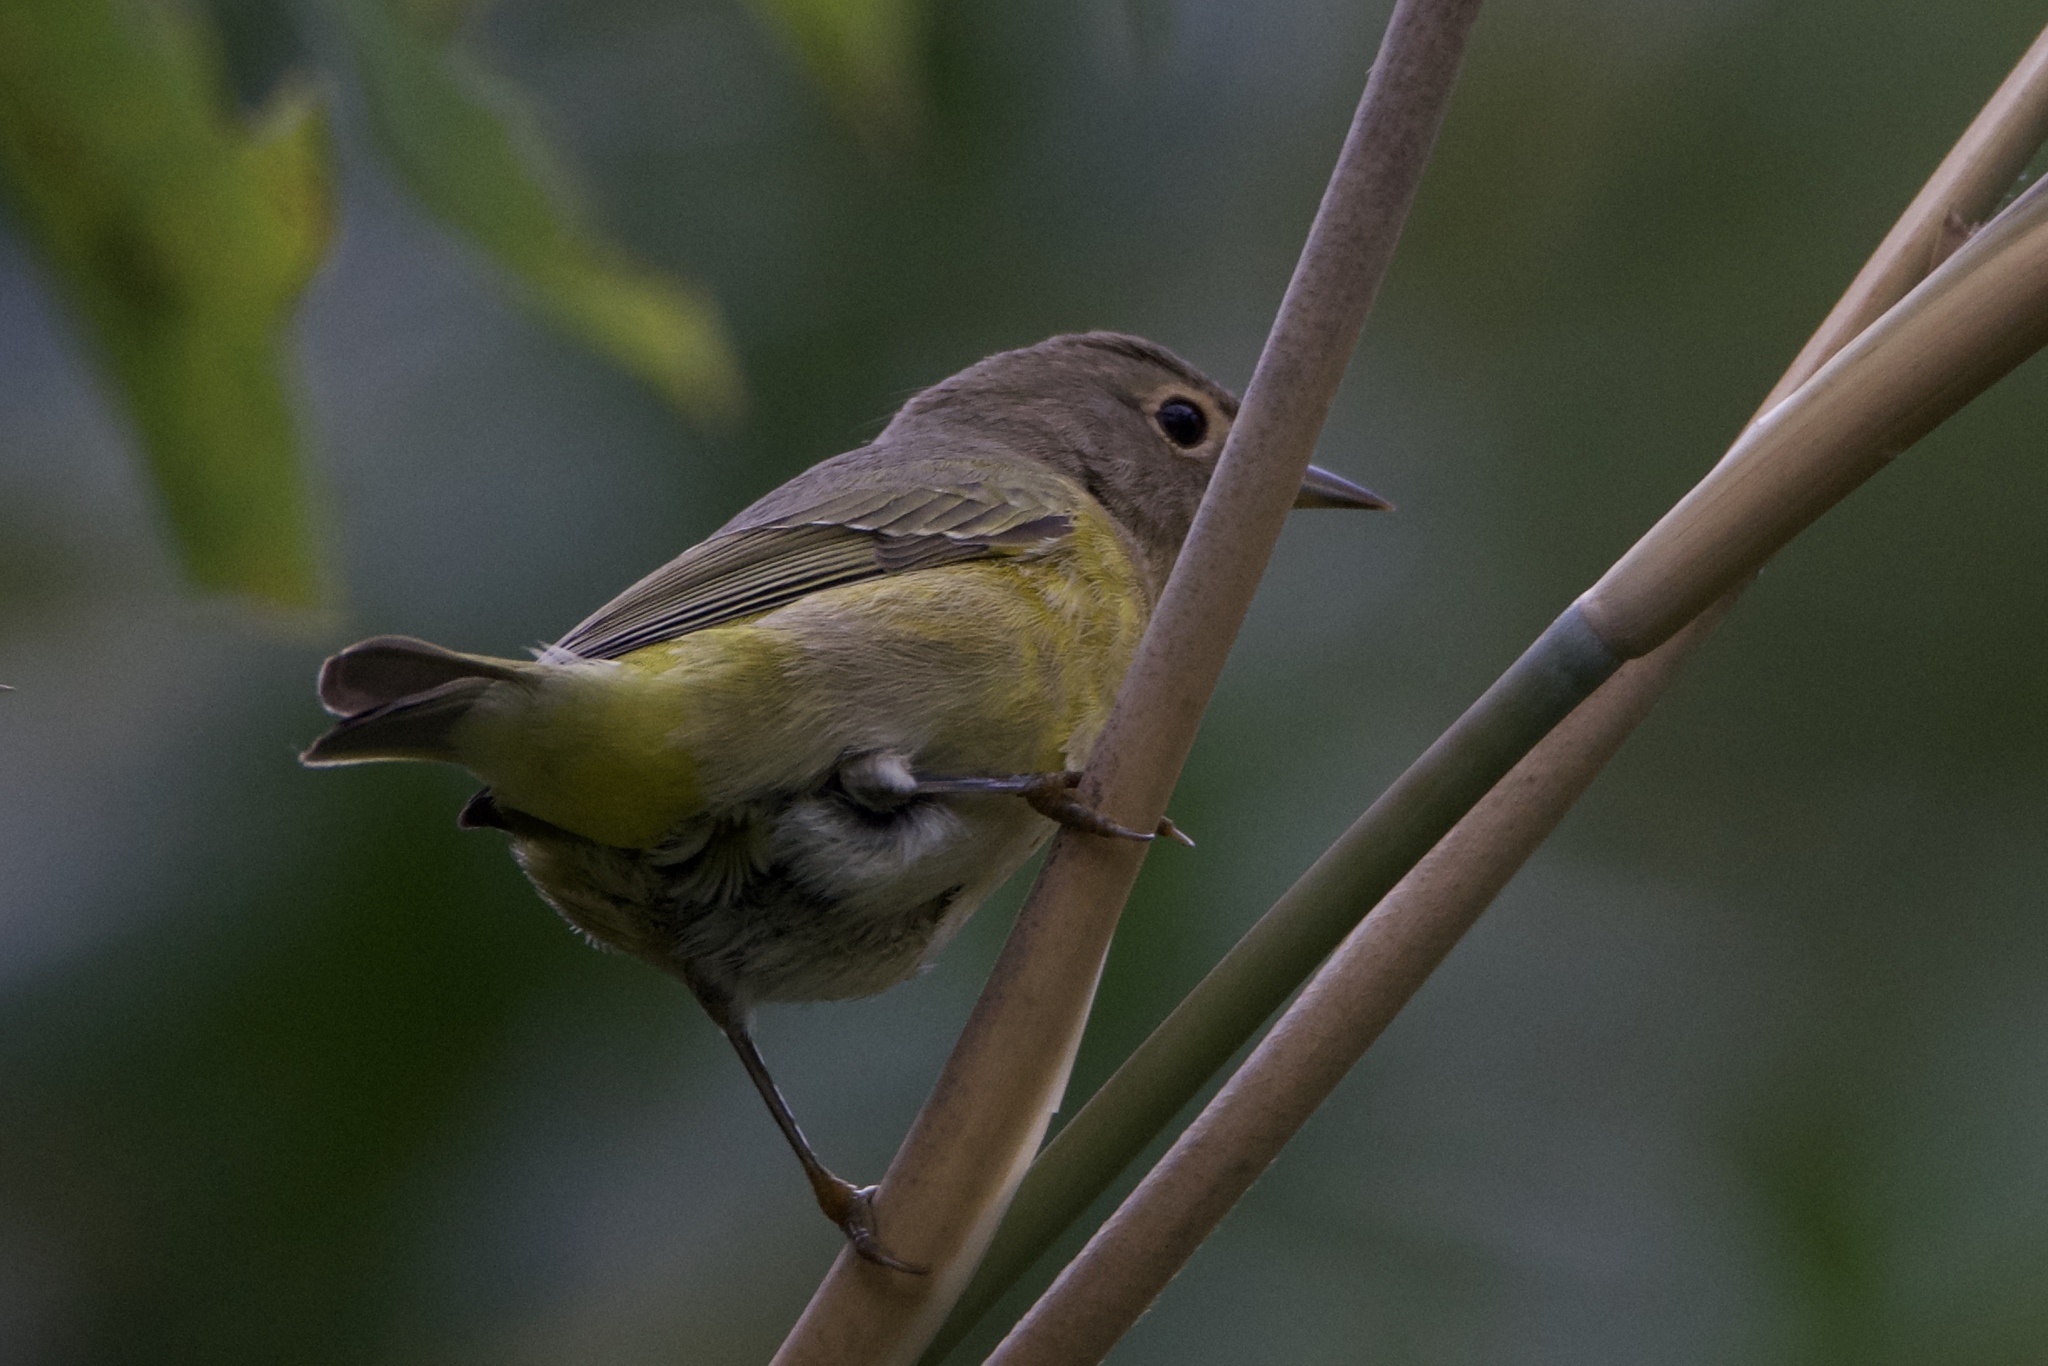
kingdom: Animalia
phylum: Chordata
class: Aves
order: Passeriformes
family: Parulidae
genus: Leiothlypis
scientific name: Leiothlypis ruficapilla
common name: Nashville warbler
